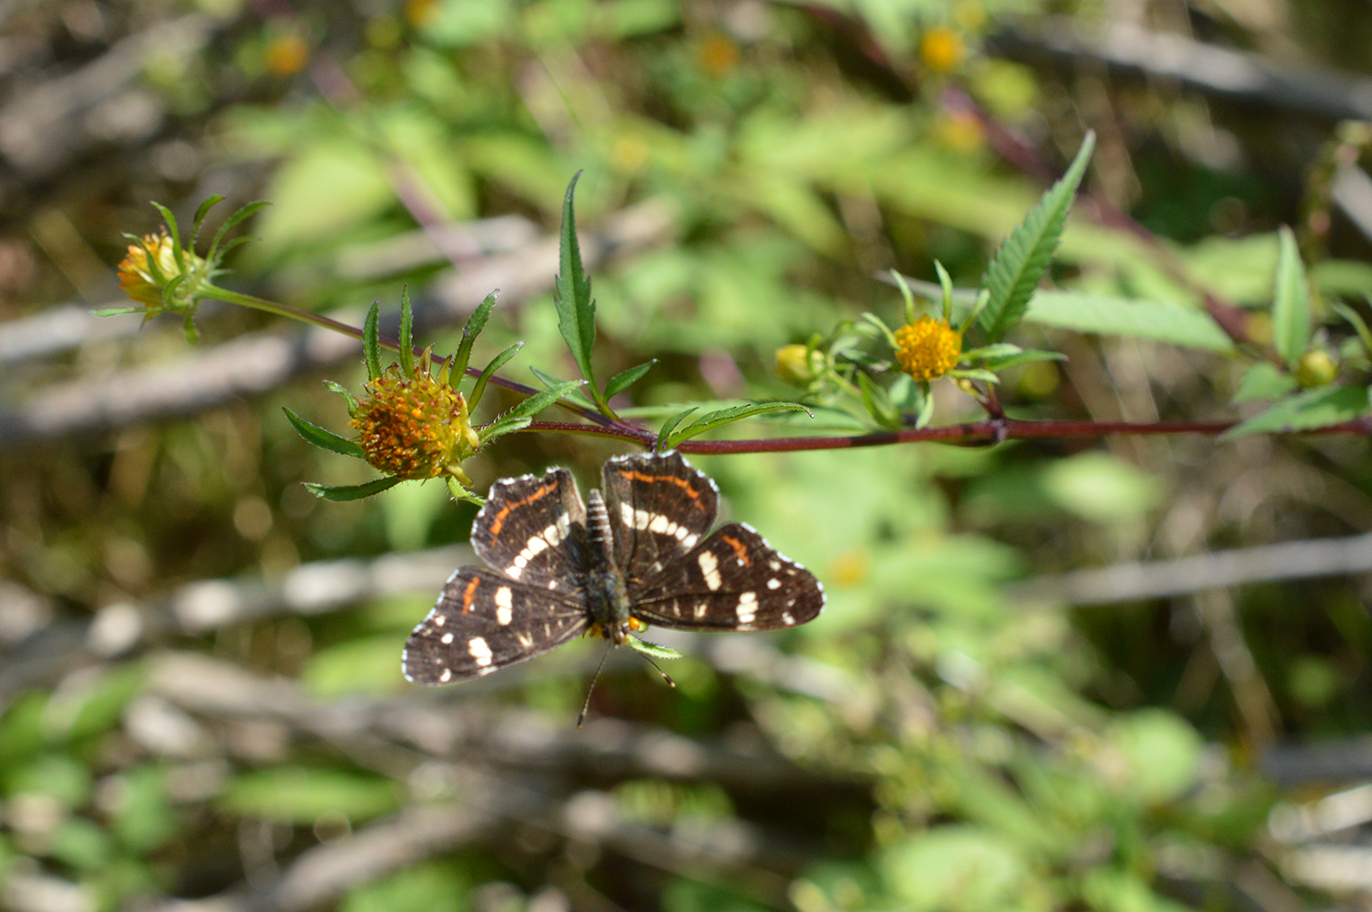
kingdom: Animalia
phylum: Arthropoda
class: Insecta
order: Lepidoptera
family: Nymphalidae
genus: Araschnia
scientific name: Araschnia levana
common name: Map butterfly
